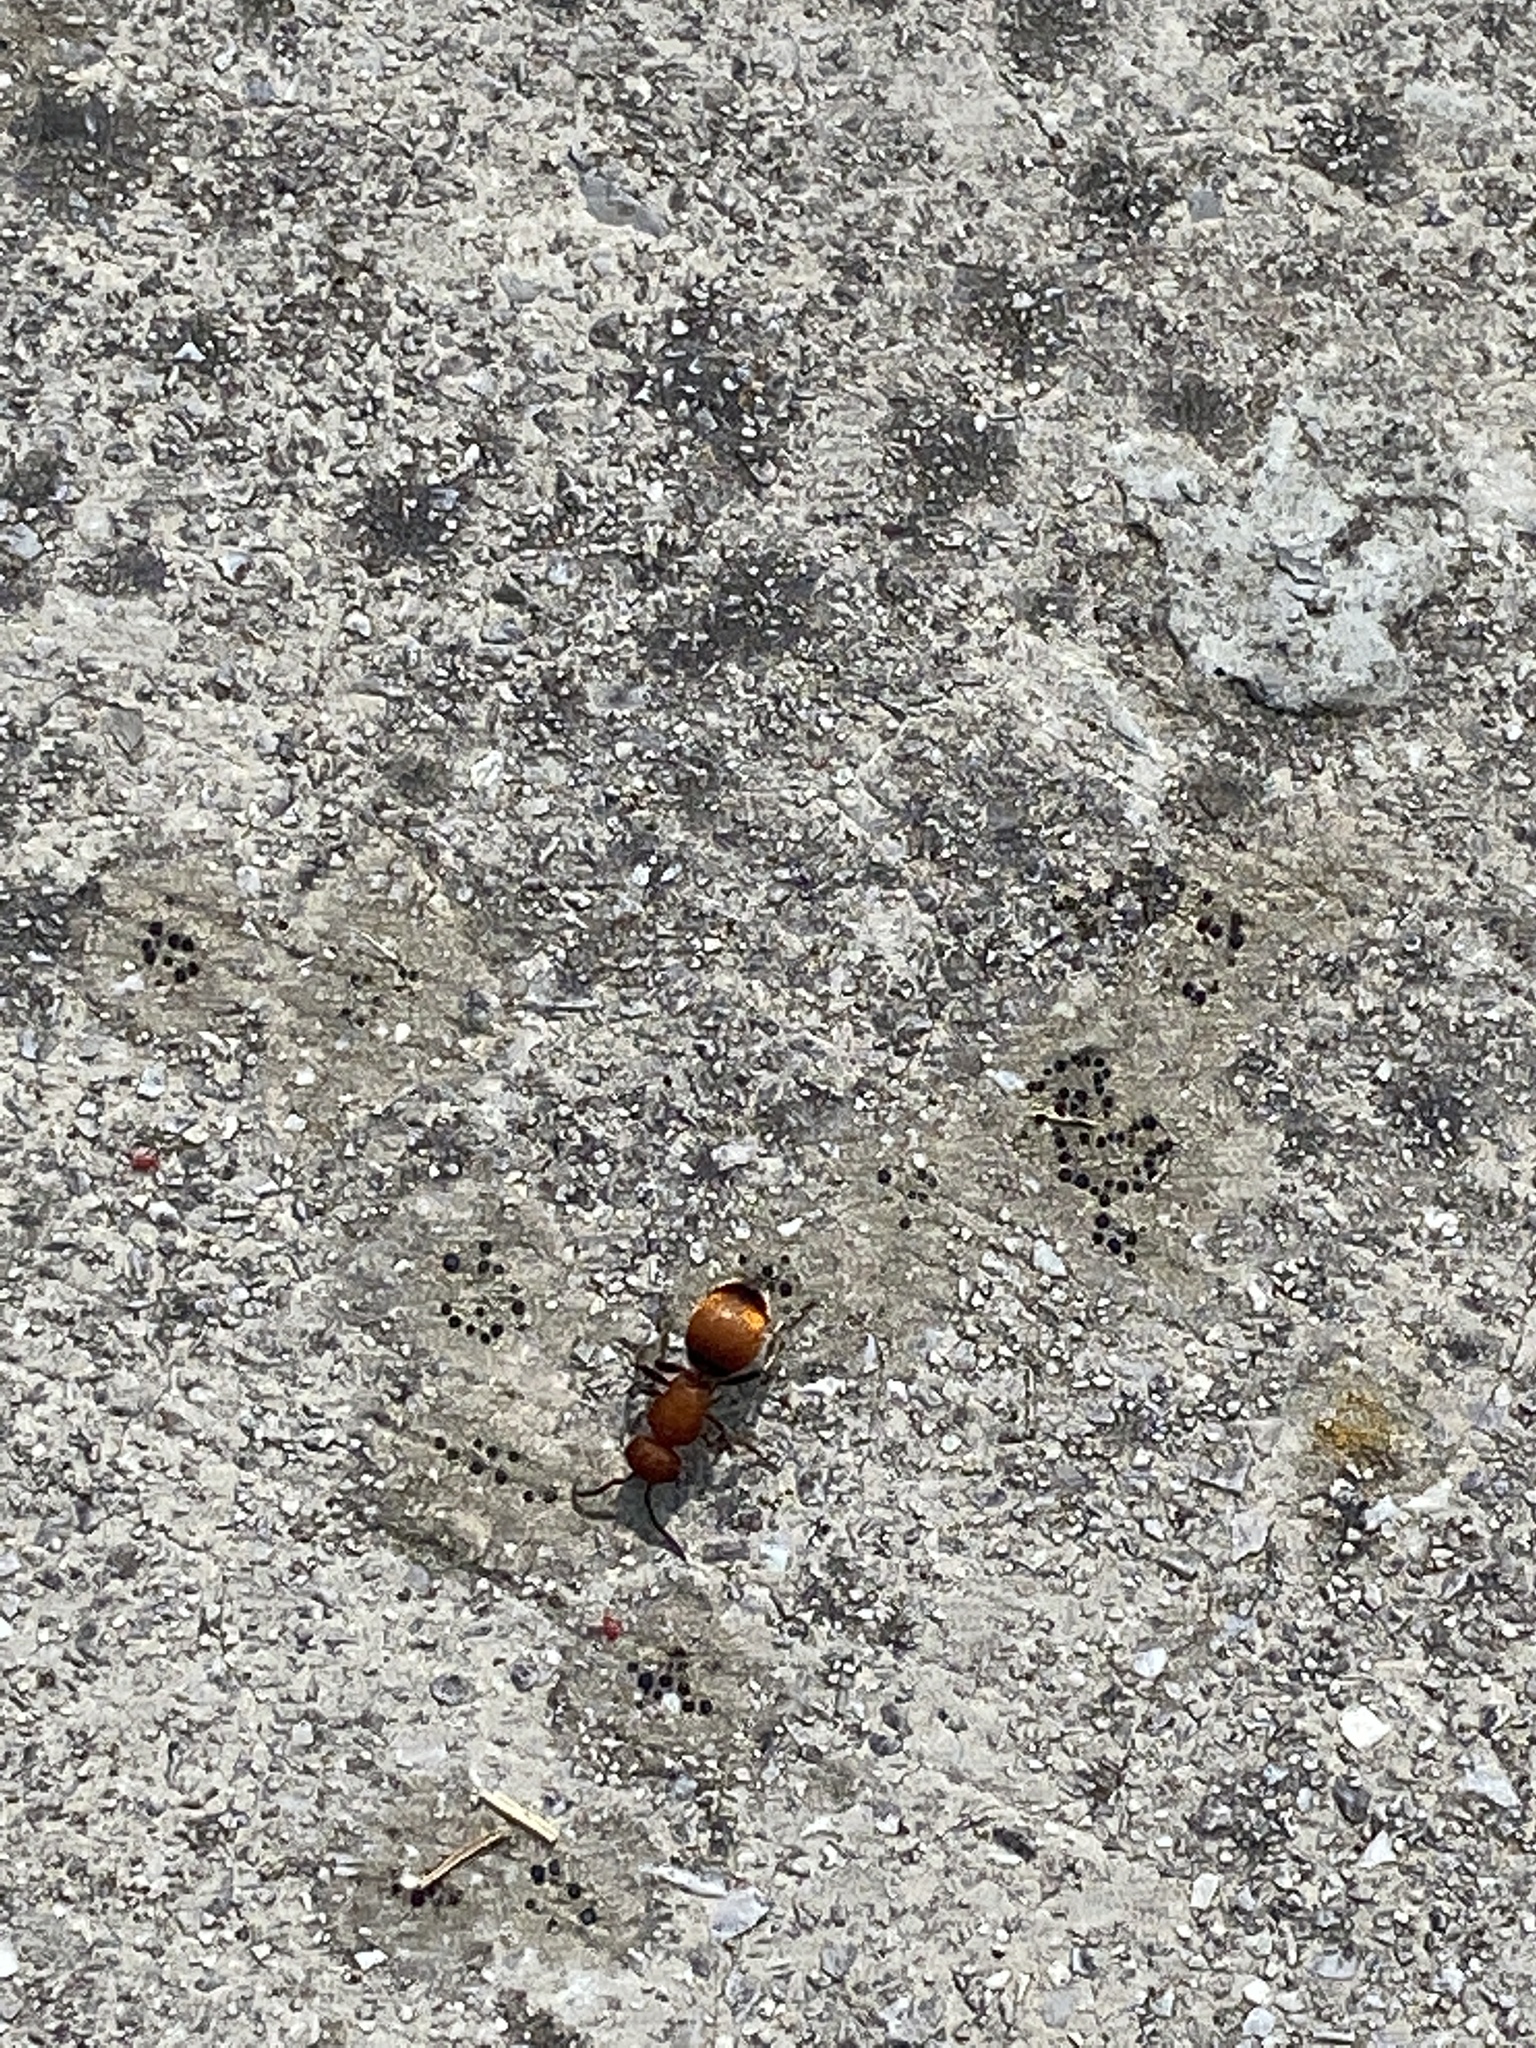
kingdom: Animalia
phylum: Arthropoda
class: Insecta
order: Hymenoptera
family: Mutillidae
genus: Pseudomethoca
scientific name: Pseudomethoca
